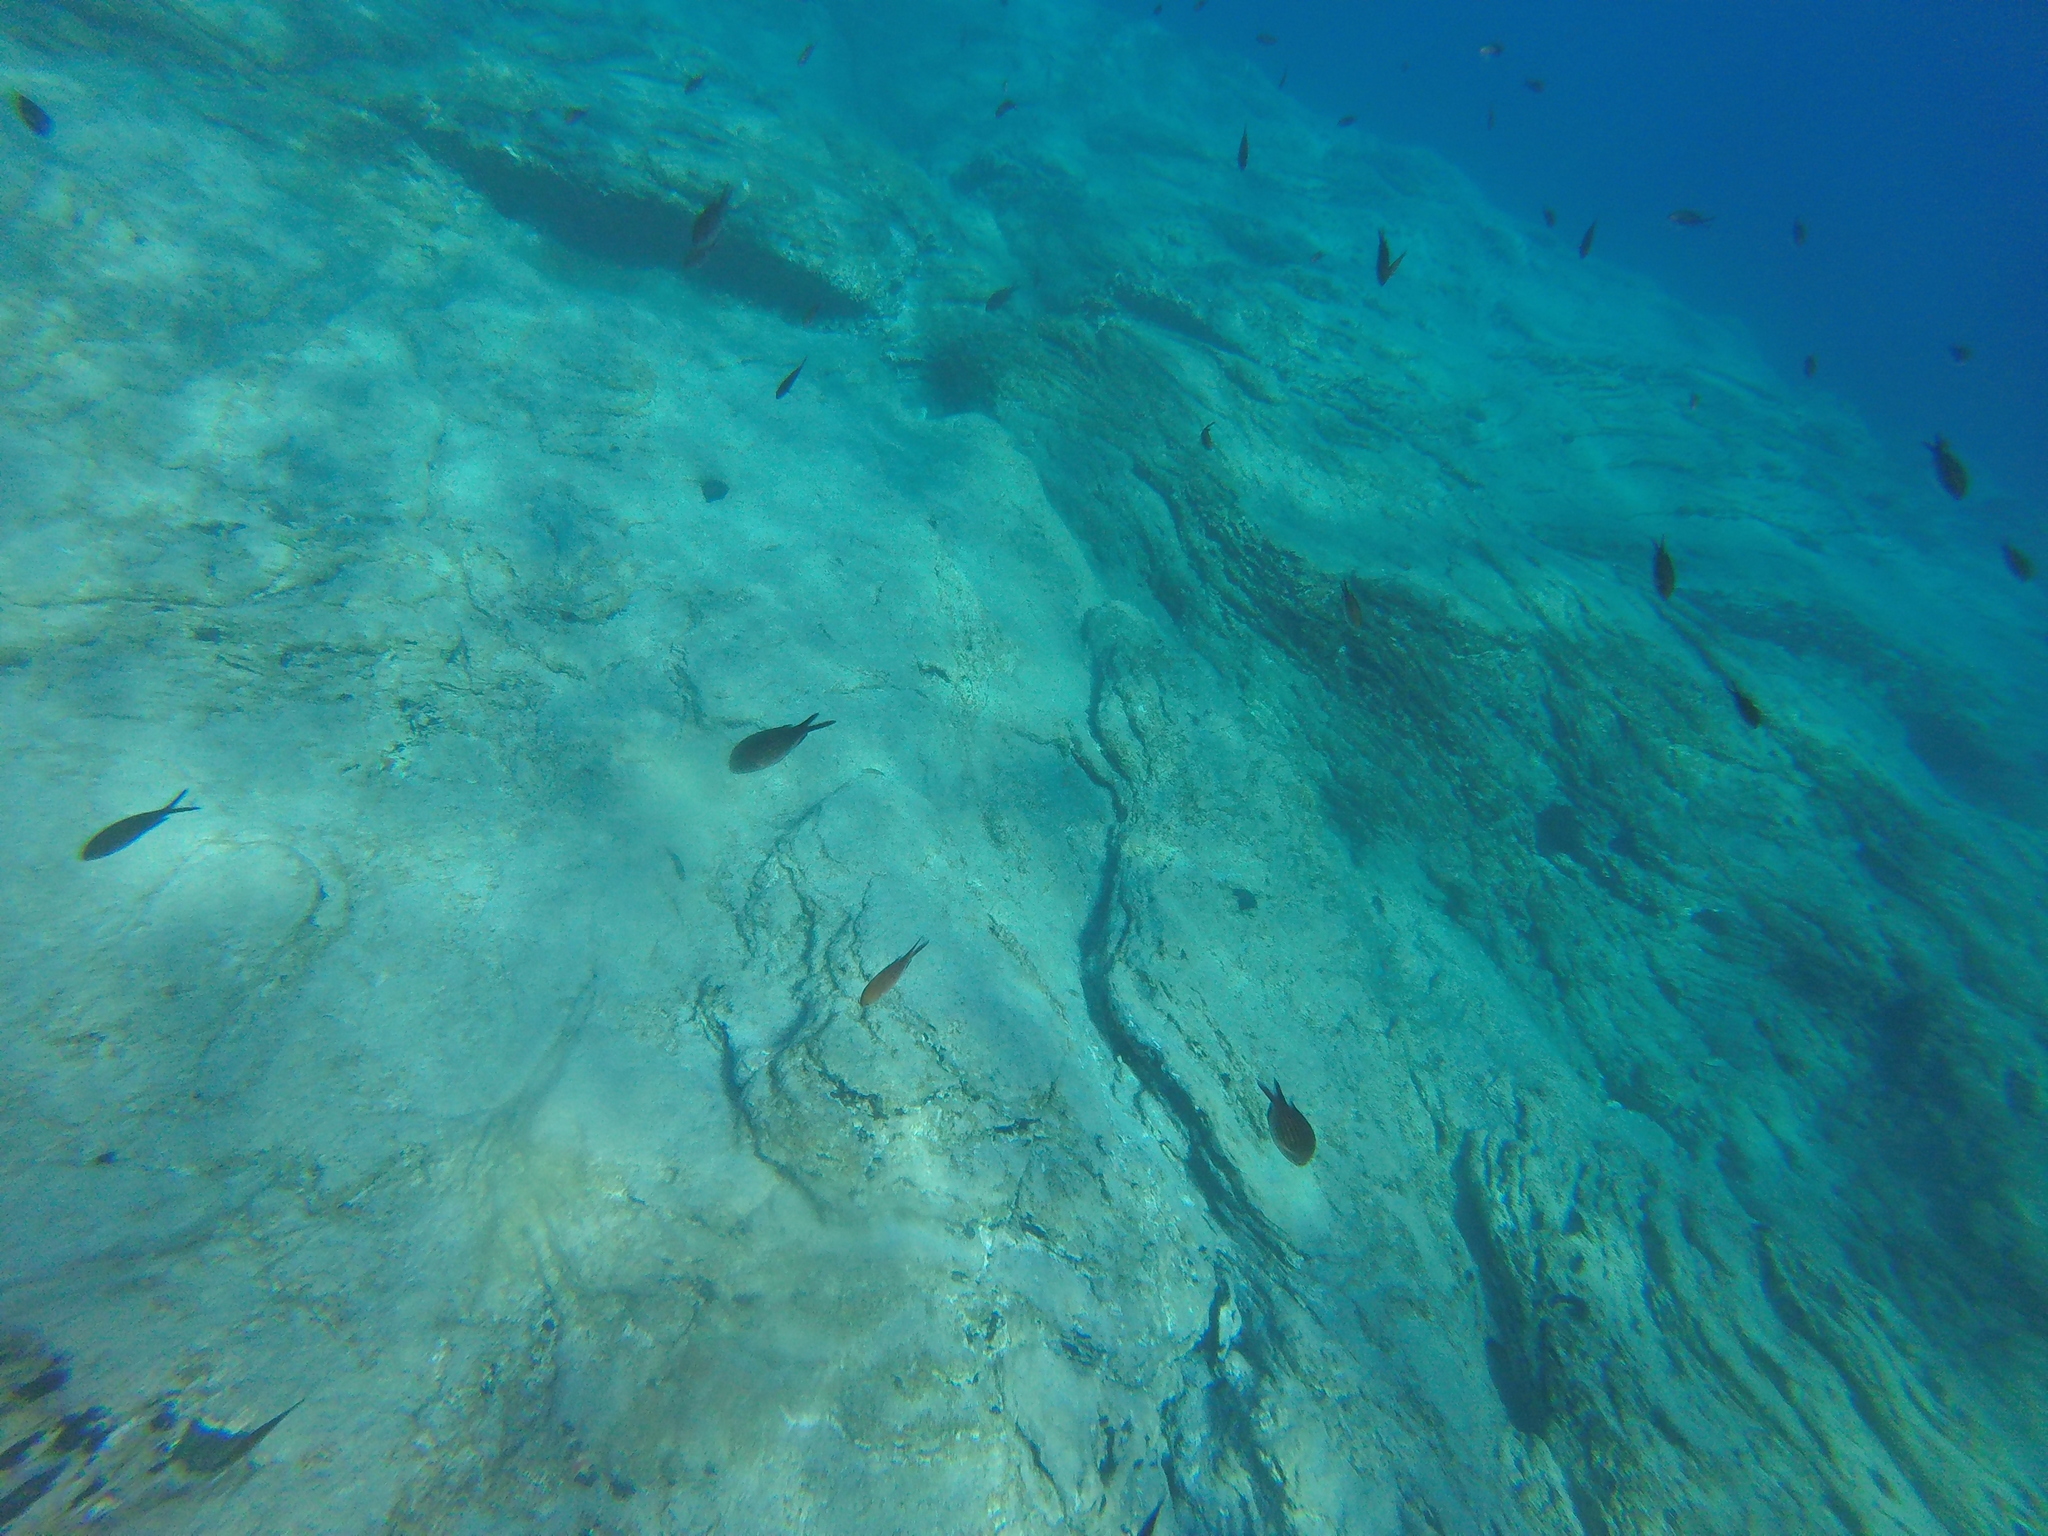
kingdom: Animalia
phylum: Chordata
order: Perciformes
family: Pomacentridae
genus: Chromis
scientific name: Chromis chromis
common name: Damselfish
